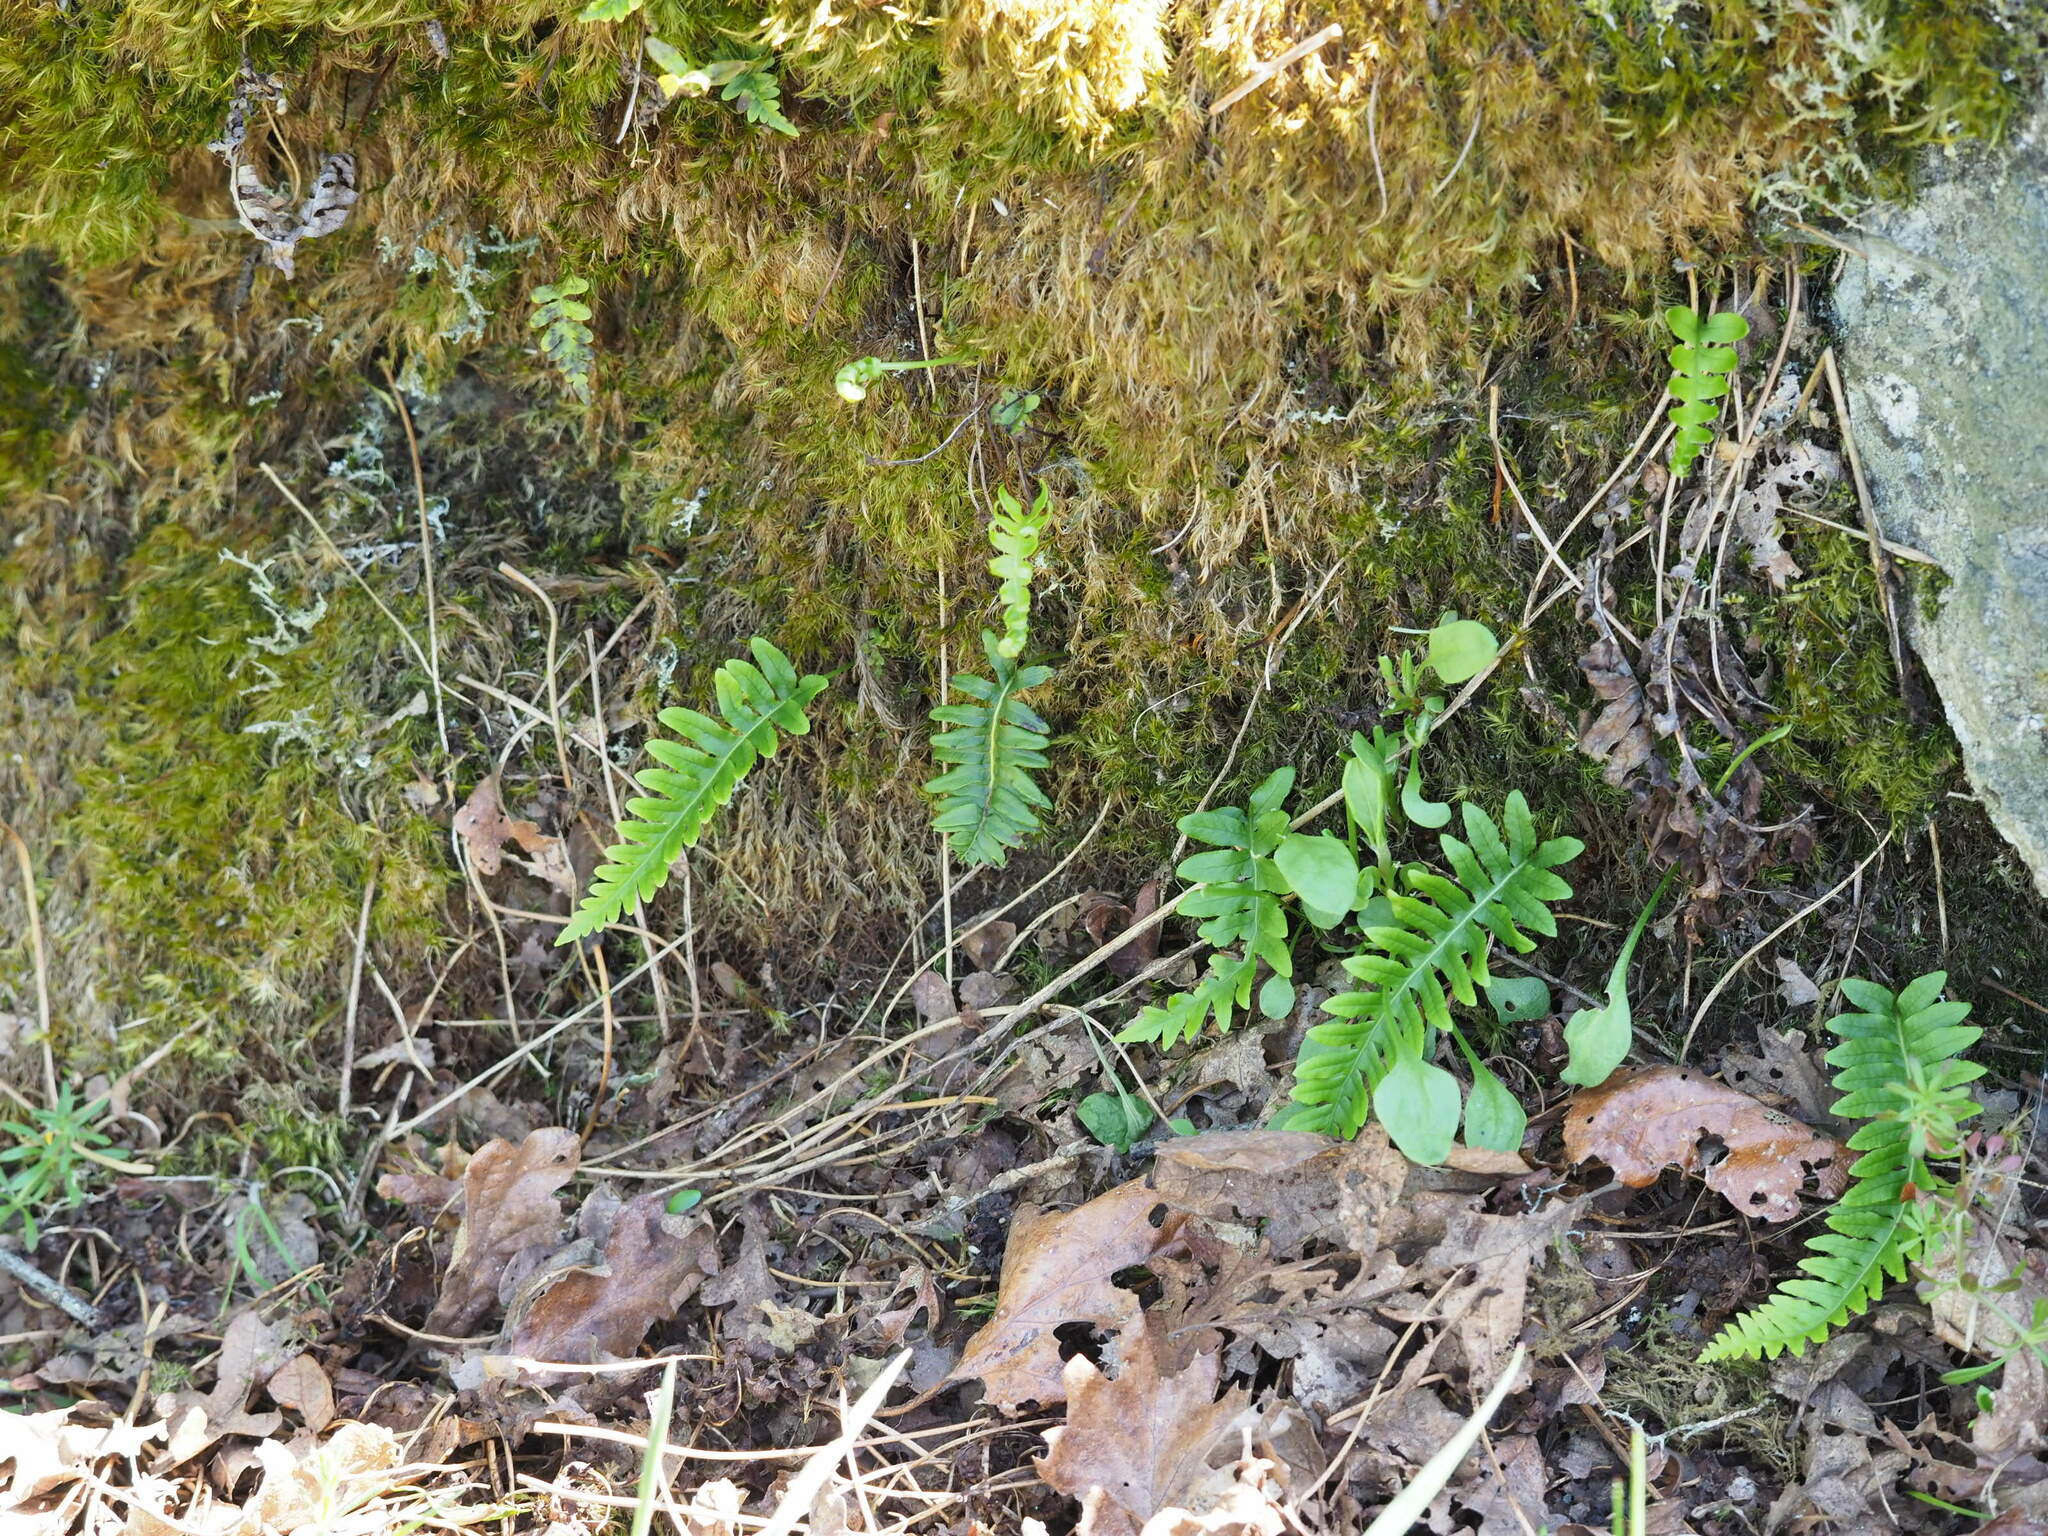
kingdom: Plantae
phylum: Tracheophyta
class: Polypodiopsida
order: Polypodiales
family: Polypodiaceae
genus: Polypodium
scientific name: Polypodium glycyrrhiza
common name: Licorice fern
